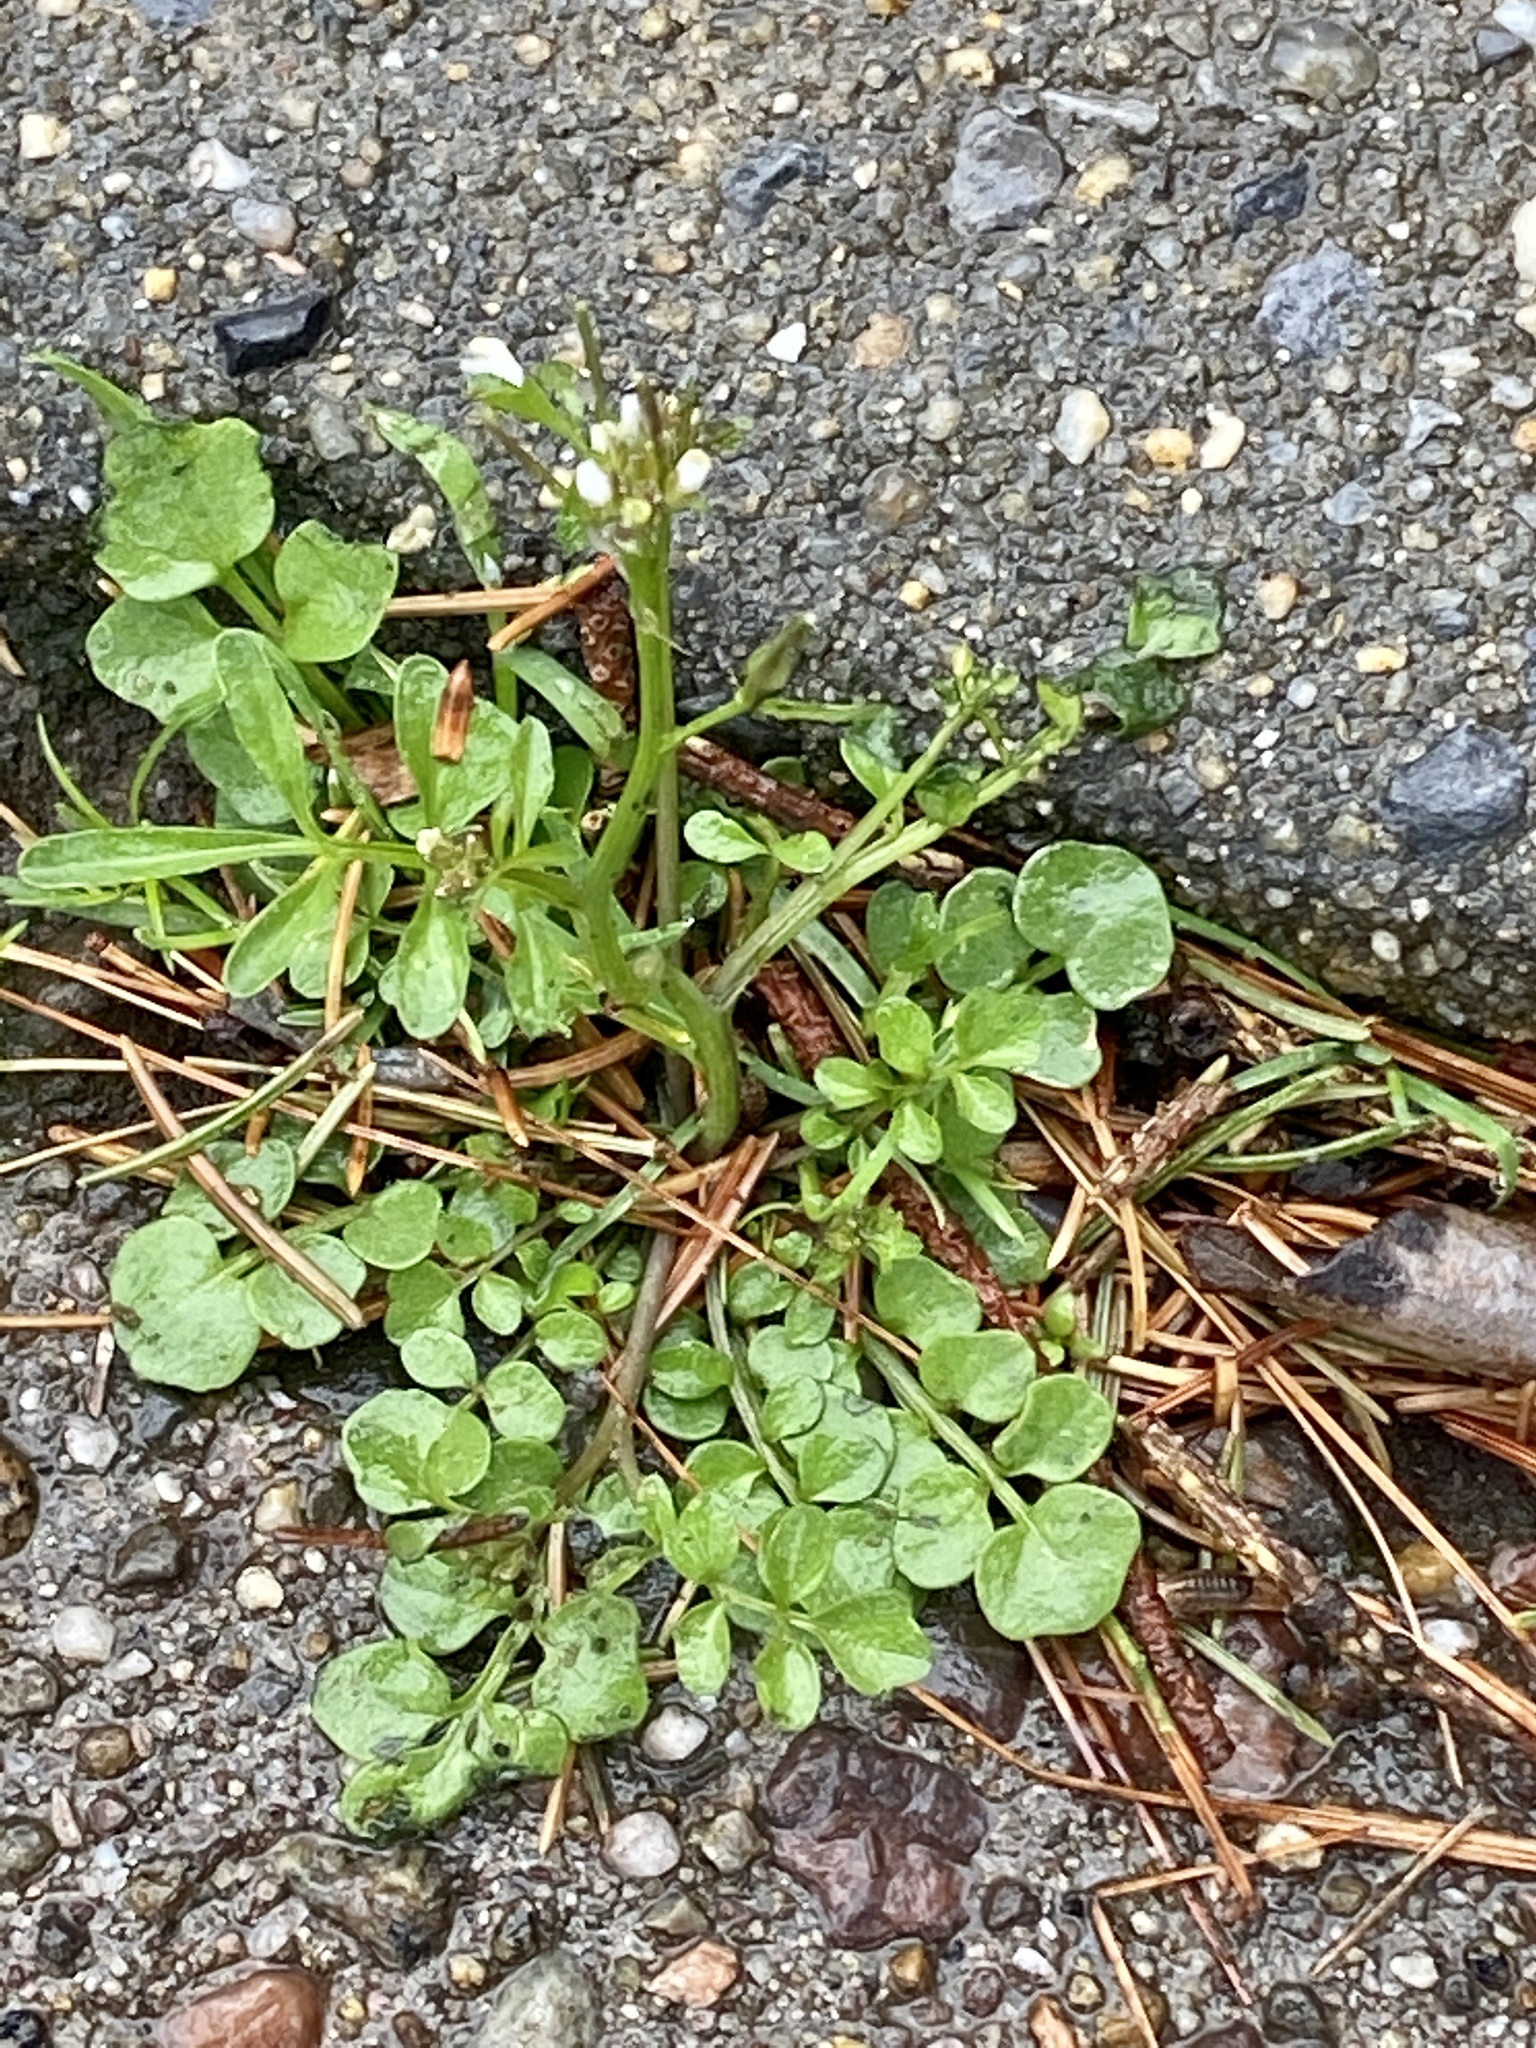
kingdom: Plantae
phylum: Tracheophyta
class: Magnoliopsida
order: Brassicales
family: Brassicaceae
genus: Cardamine
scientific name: Cardamine hirsuta
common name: Hairy bittercress
